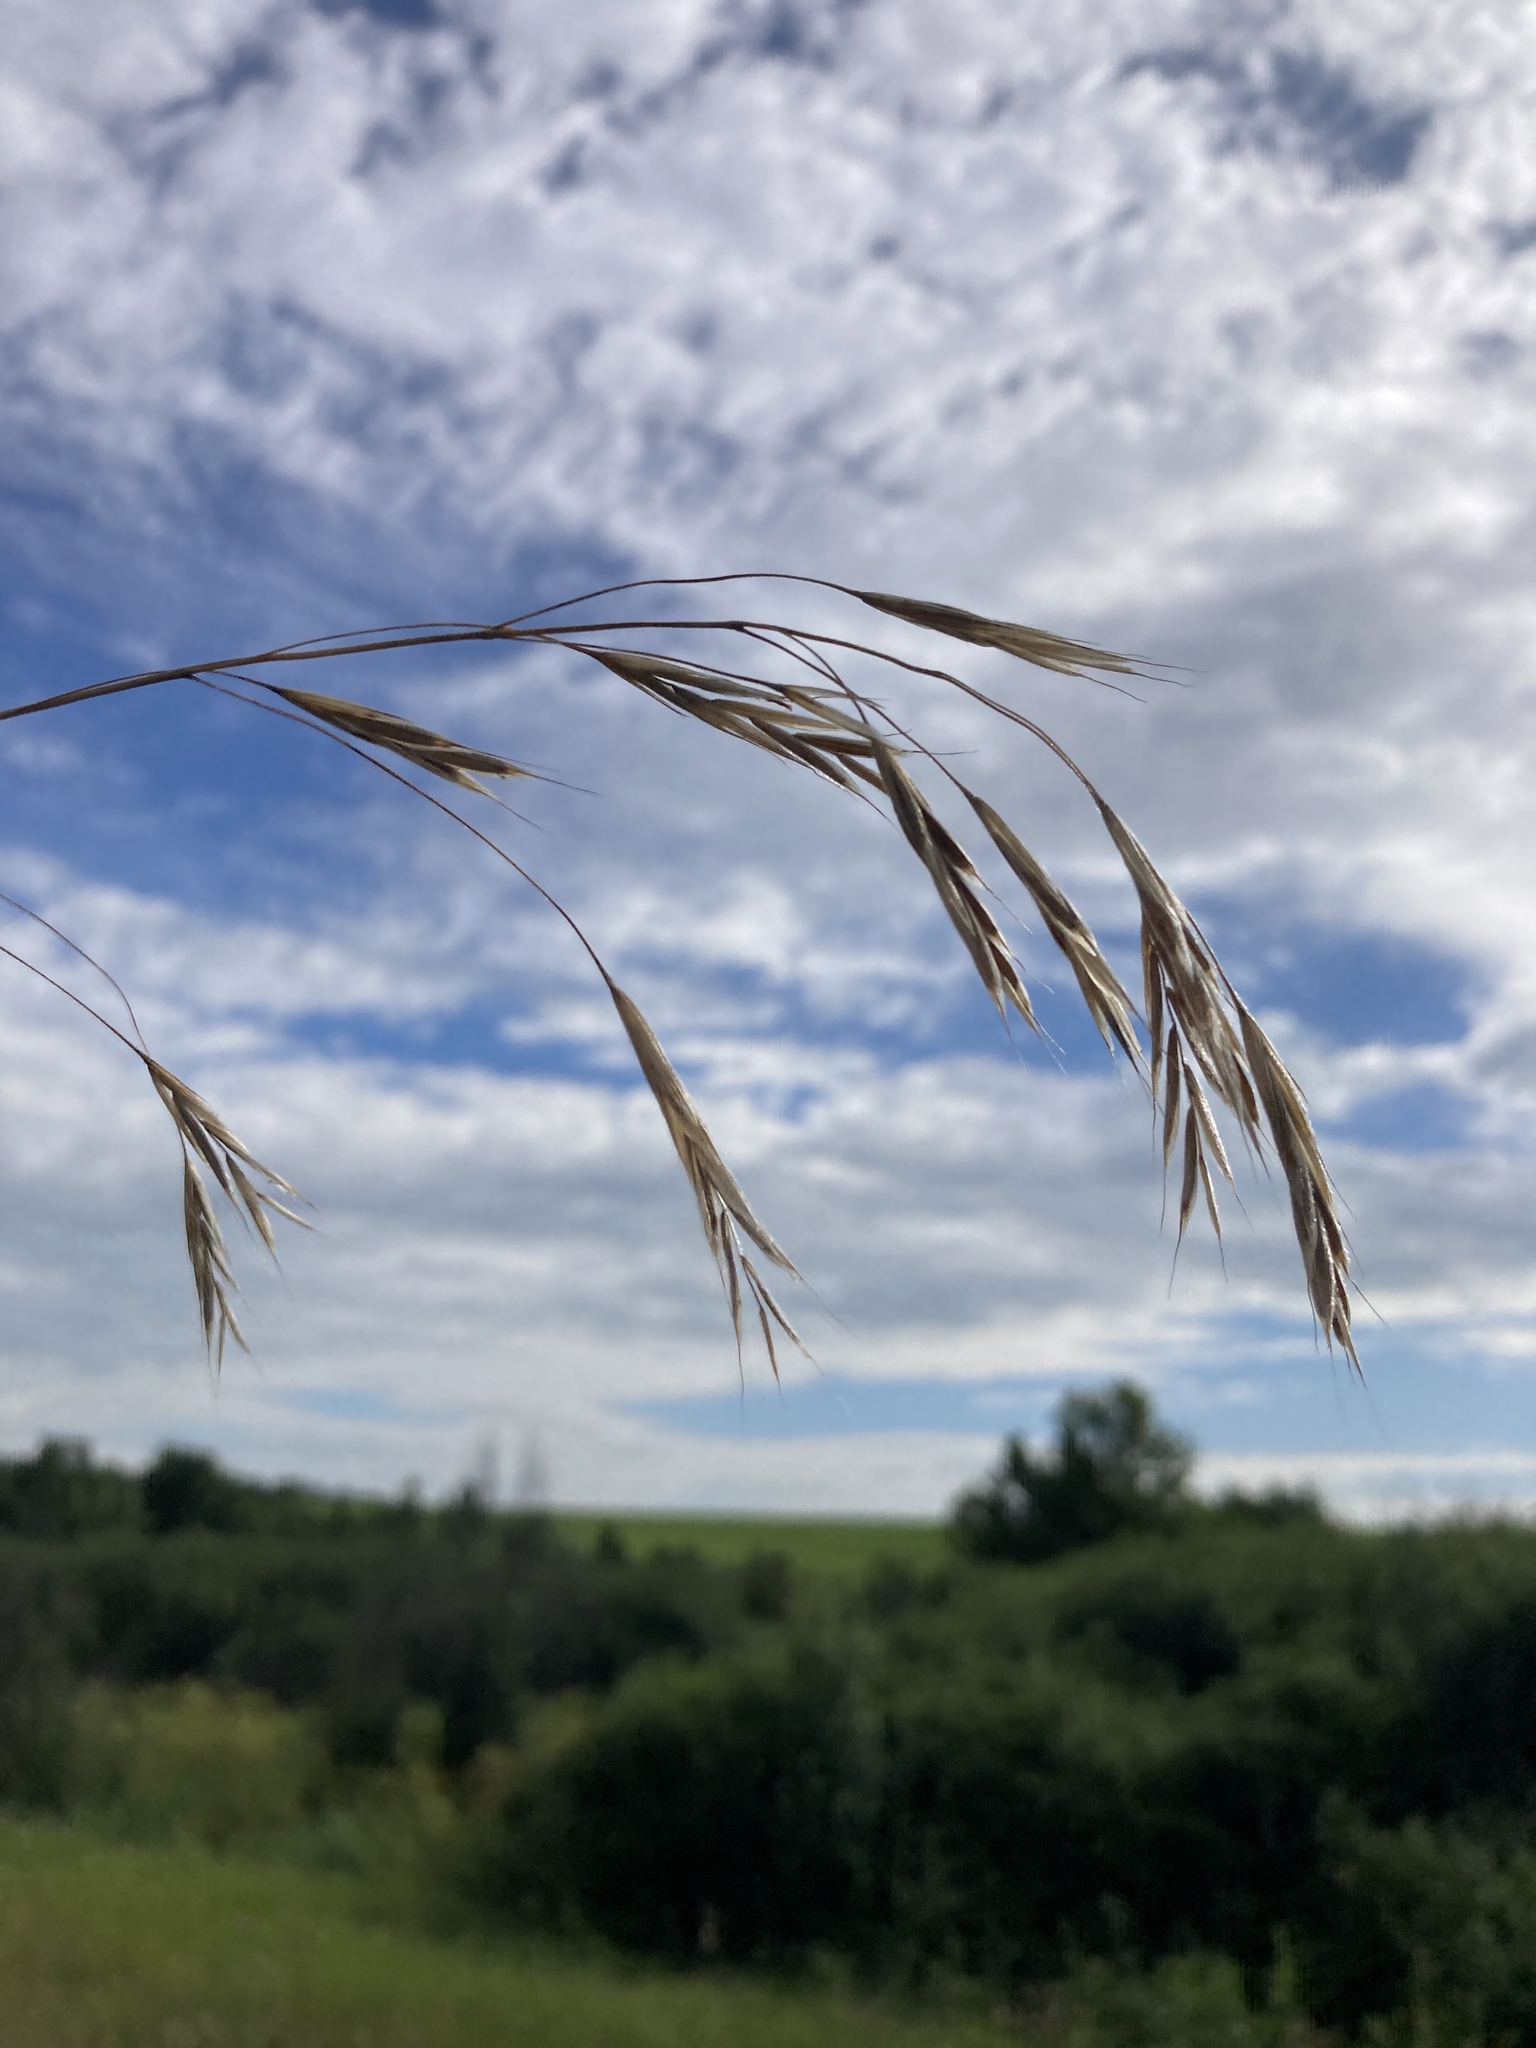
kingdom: Plantae
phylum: Tracheophyta
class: Liliopsida
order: Poales
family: Poaceae
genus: Bromus
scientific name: Bromus riparius
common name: Meadow brome
